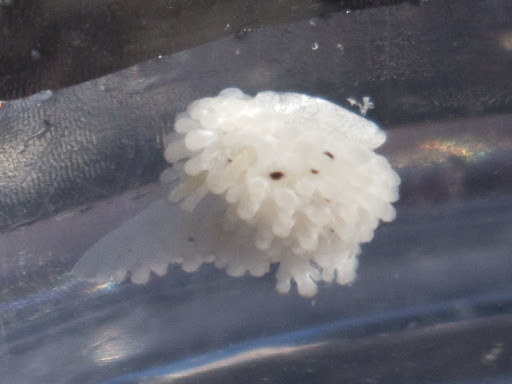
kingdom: Animalia
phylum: Mollusca
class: Gastropoda
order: Nudibranchia
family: Aegiridae
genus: Aegires
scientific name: Aegires albopunctatus
